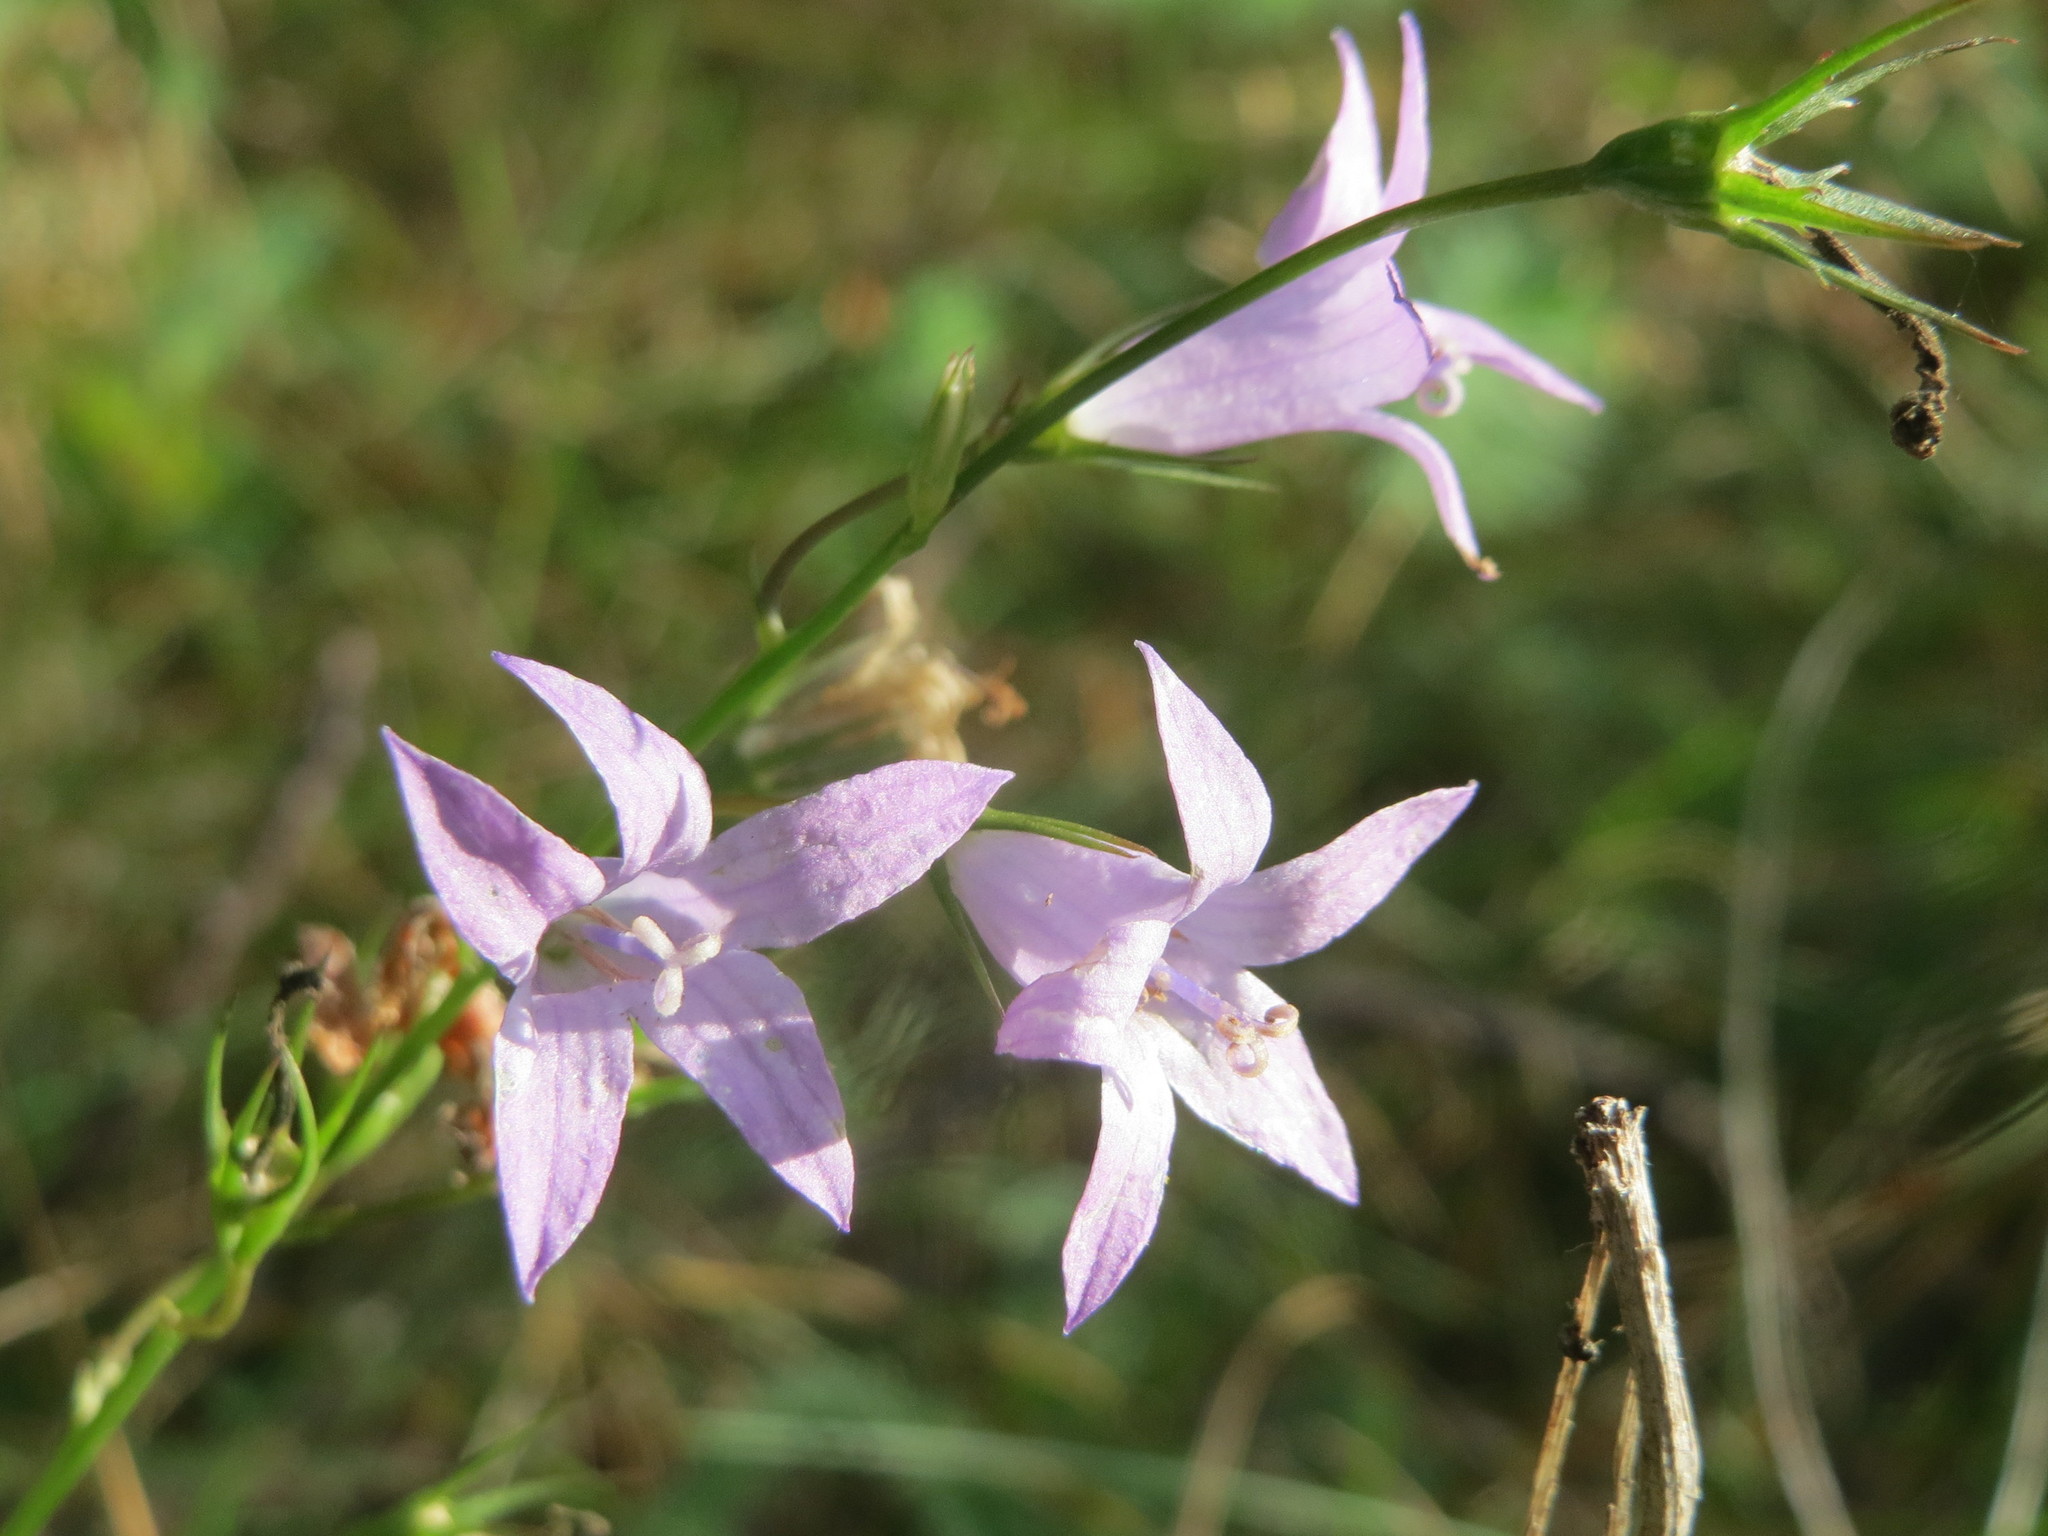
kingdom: Plantae
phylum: Tracheophyta
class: Magnoliopsida
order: Asterales
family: Campanulaceae
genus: Campanula
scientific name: Campanula rapunculus
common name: Rampion bellflower
